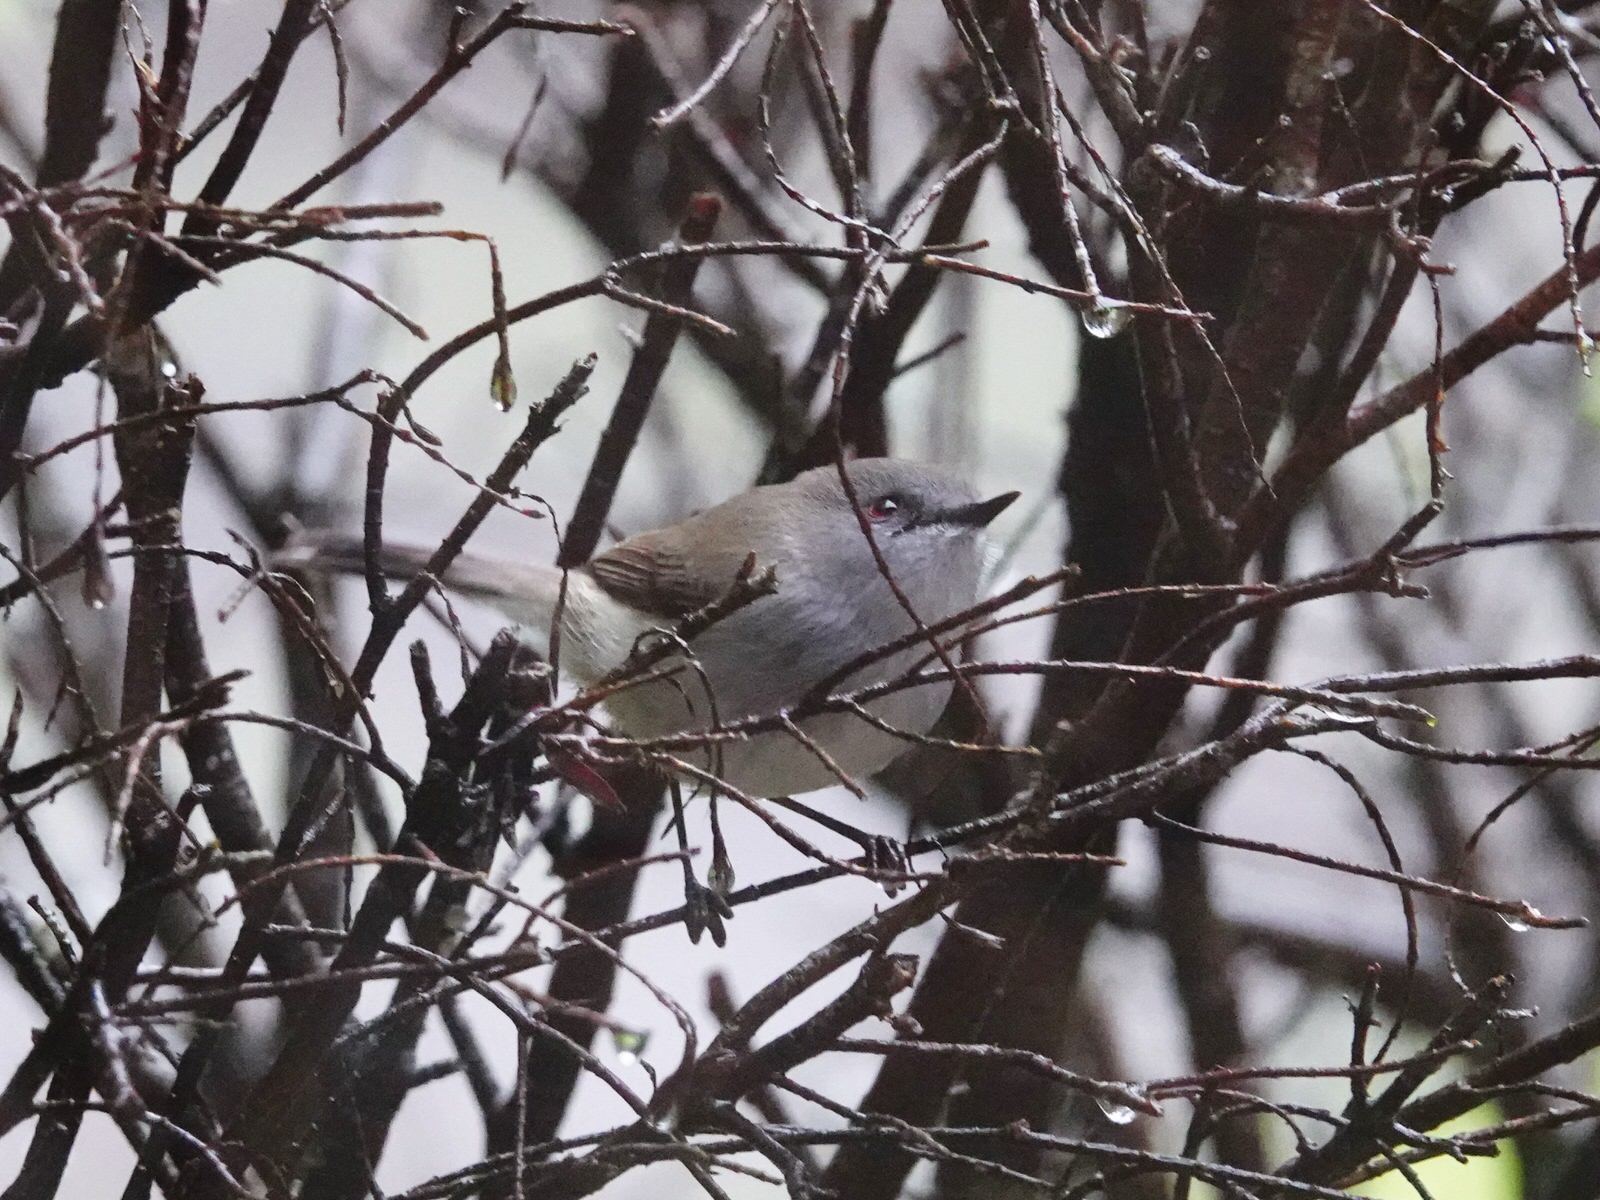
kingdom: Animalia
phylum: Chordata
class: Aves
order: Passeriformes
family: Acanthizidae
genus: Gerygone
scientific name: Gerygone igata
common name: Grey gerygone
